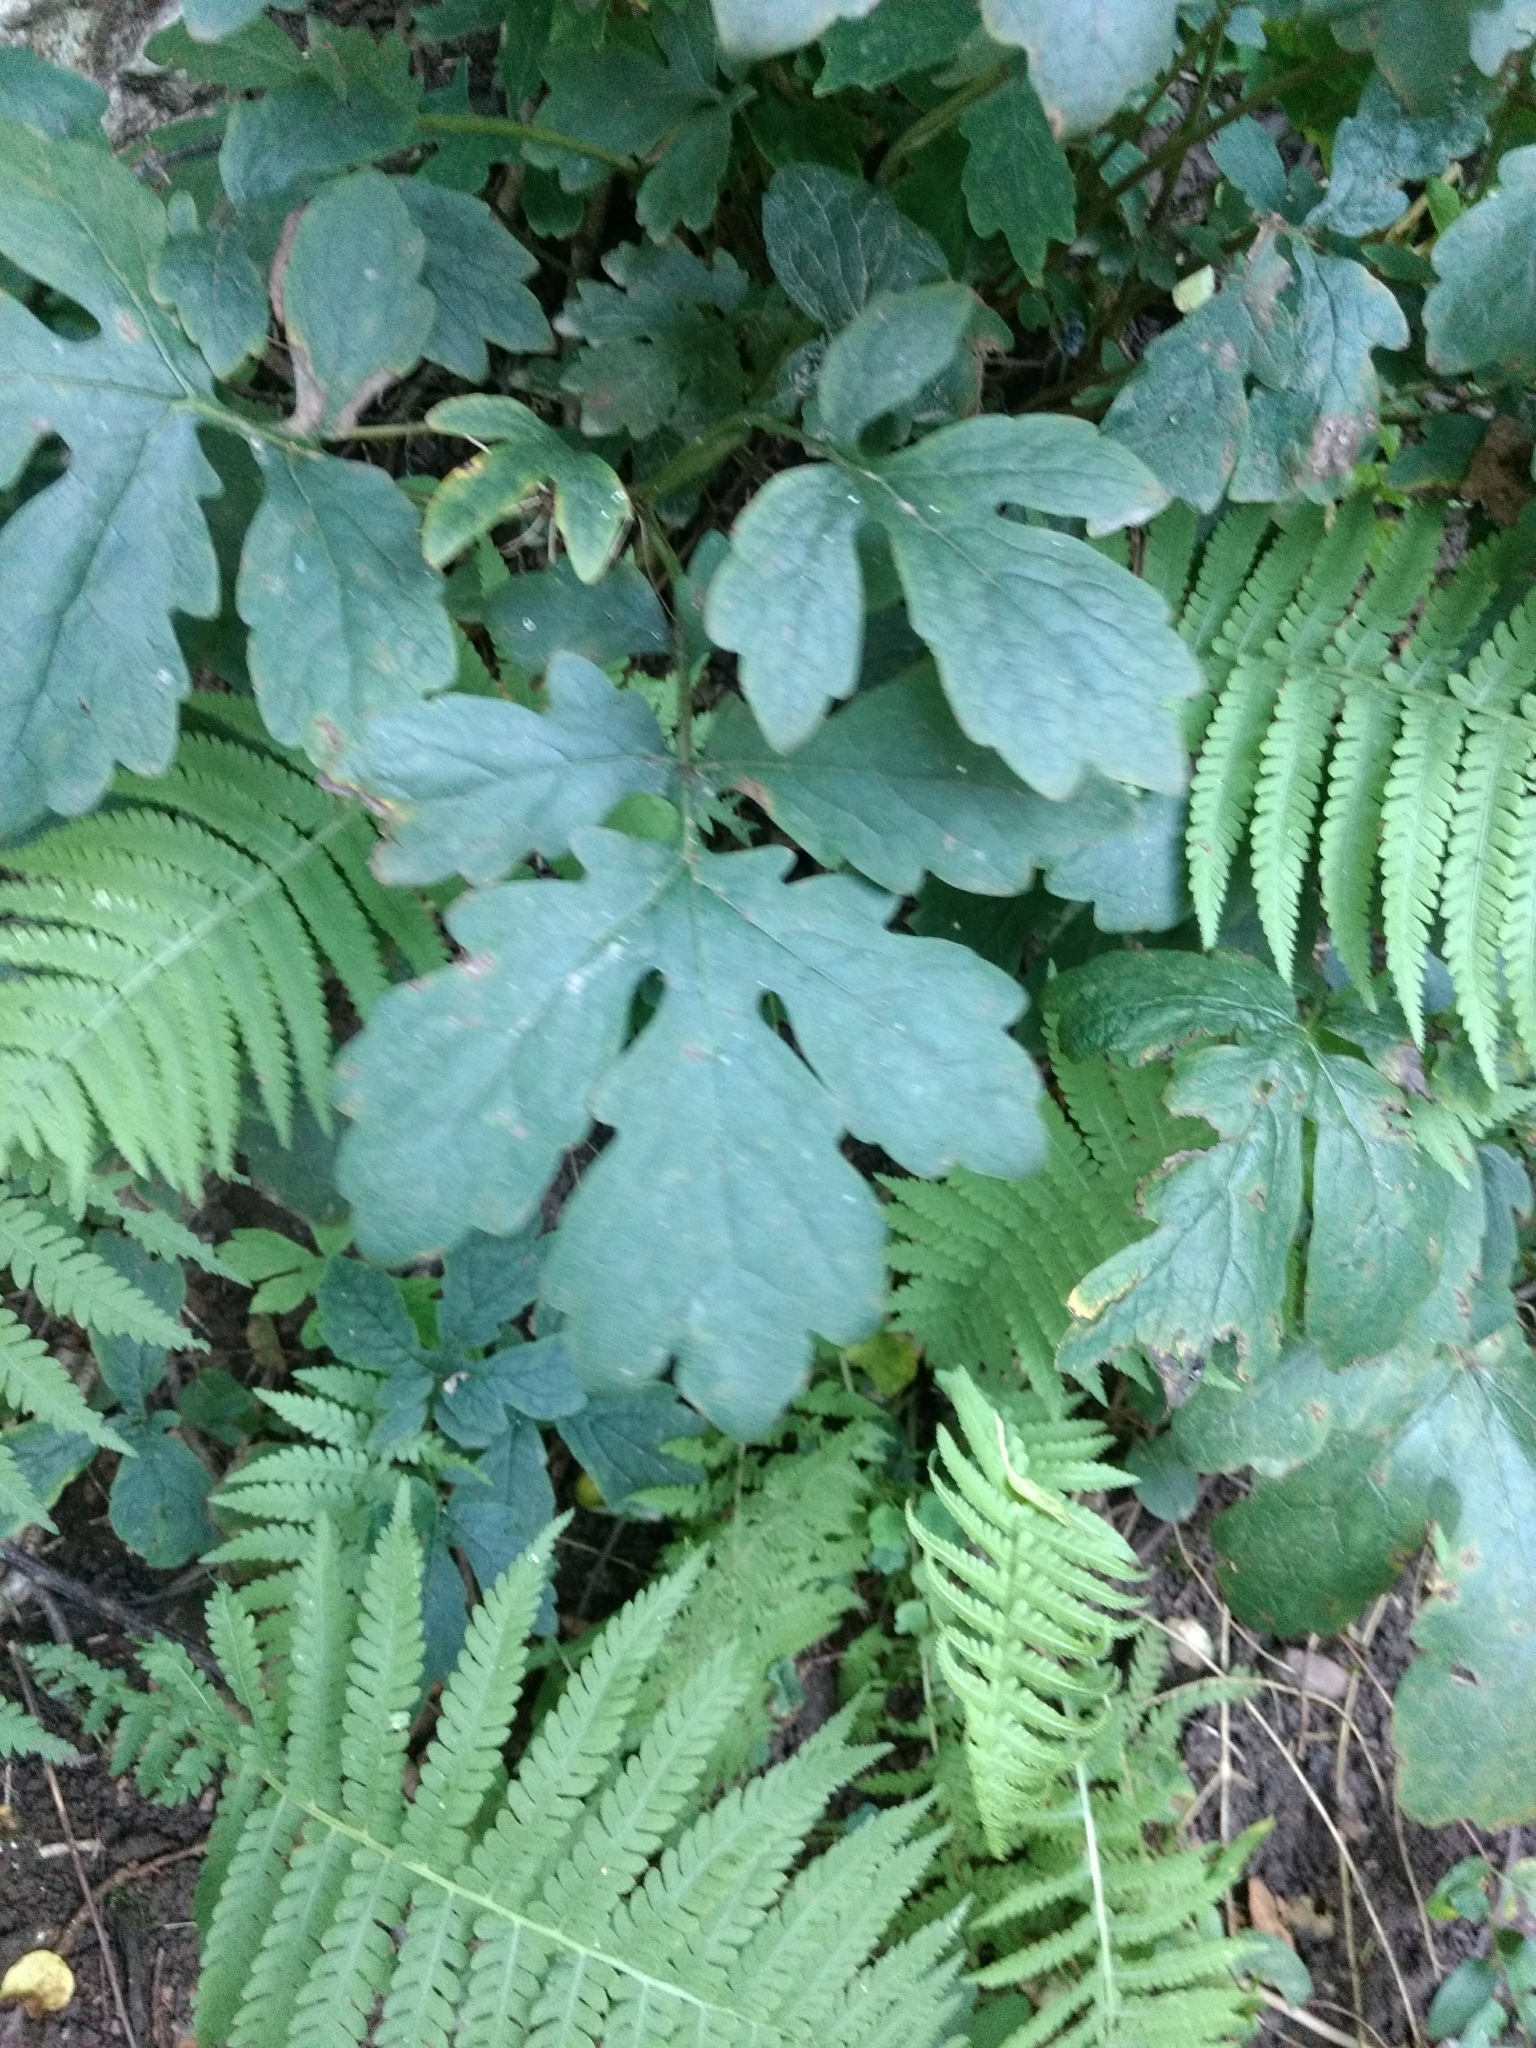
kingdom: Plantae
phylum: Tracheophyta
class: Magnoliopsida
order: Ranunculales
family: Papaveraceae
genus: Stylophorum
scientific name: Stylophorum diphyllum
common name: Celandine poppy
